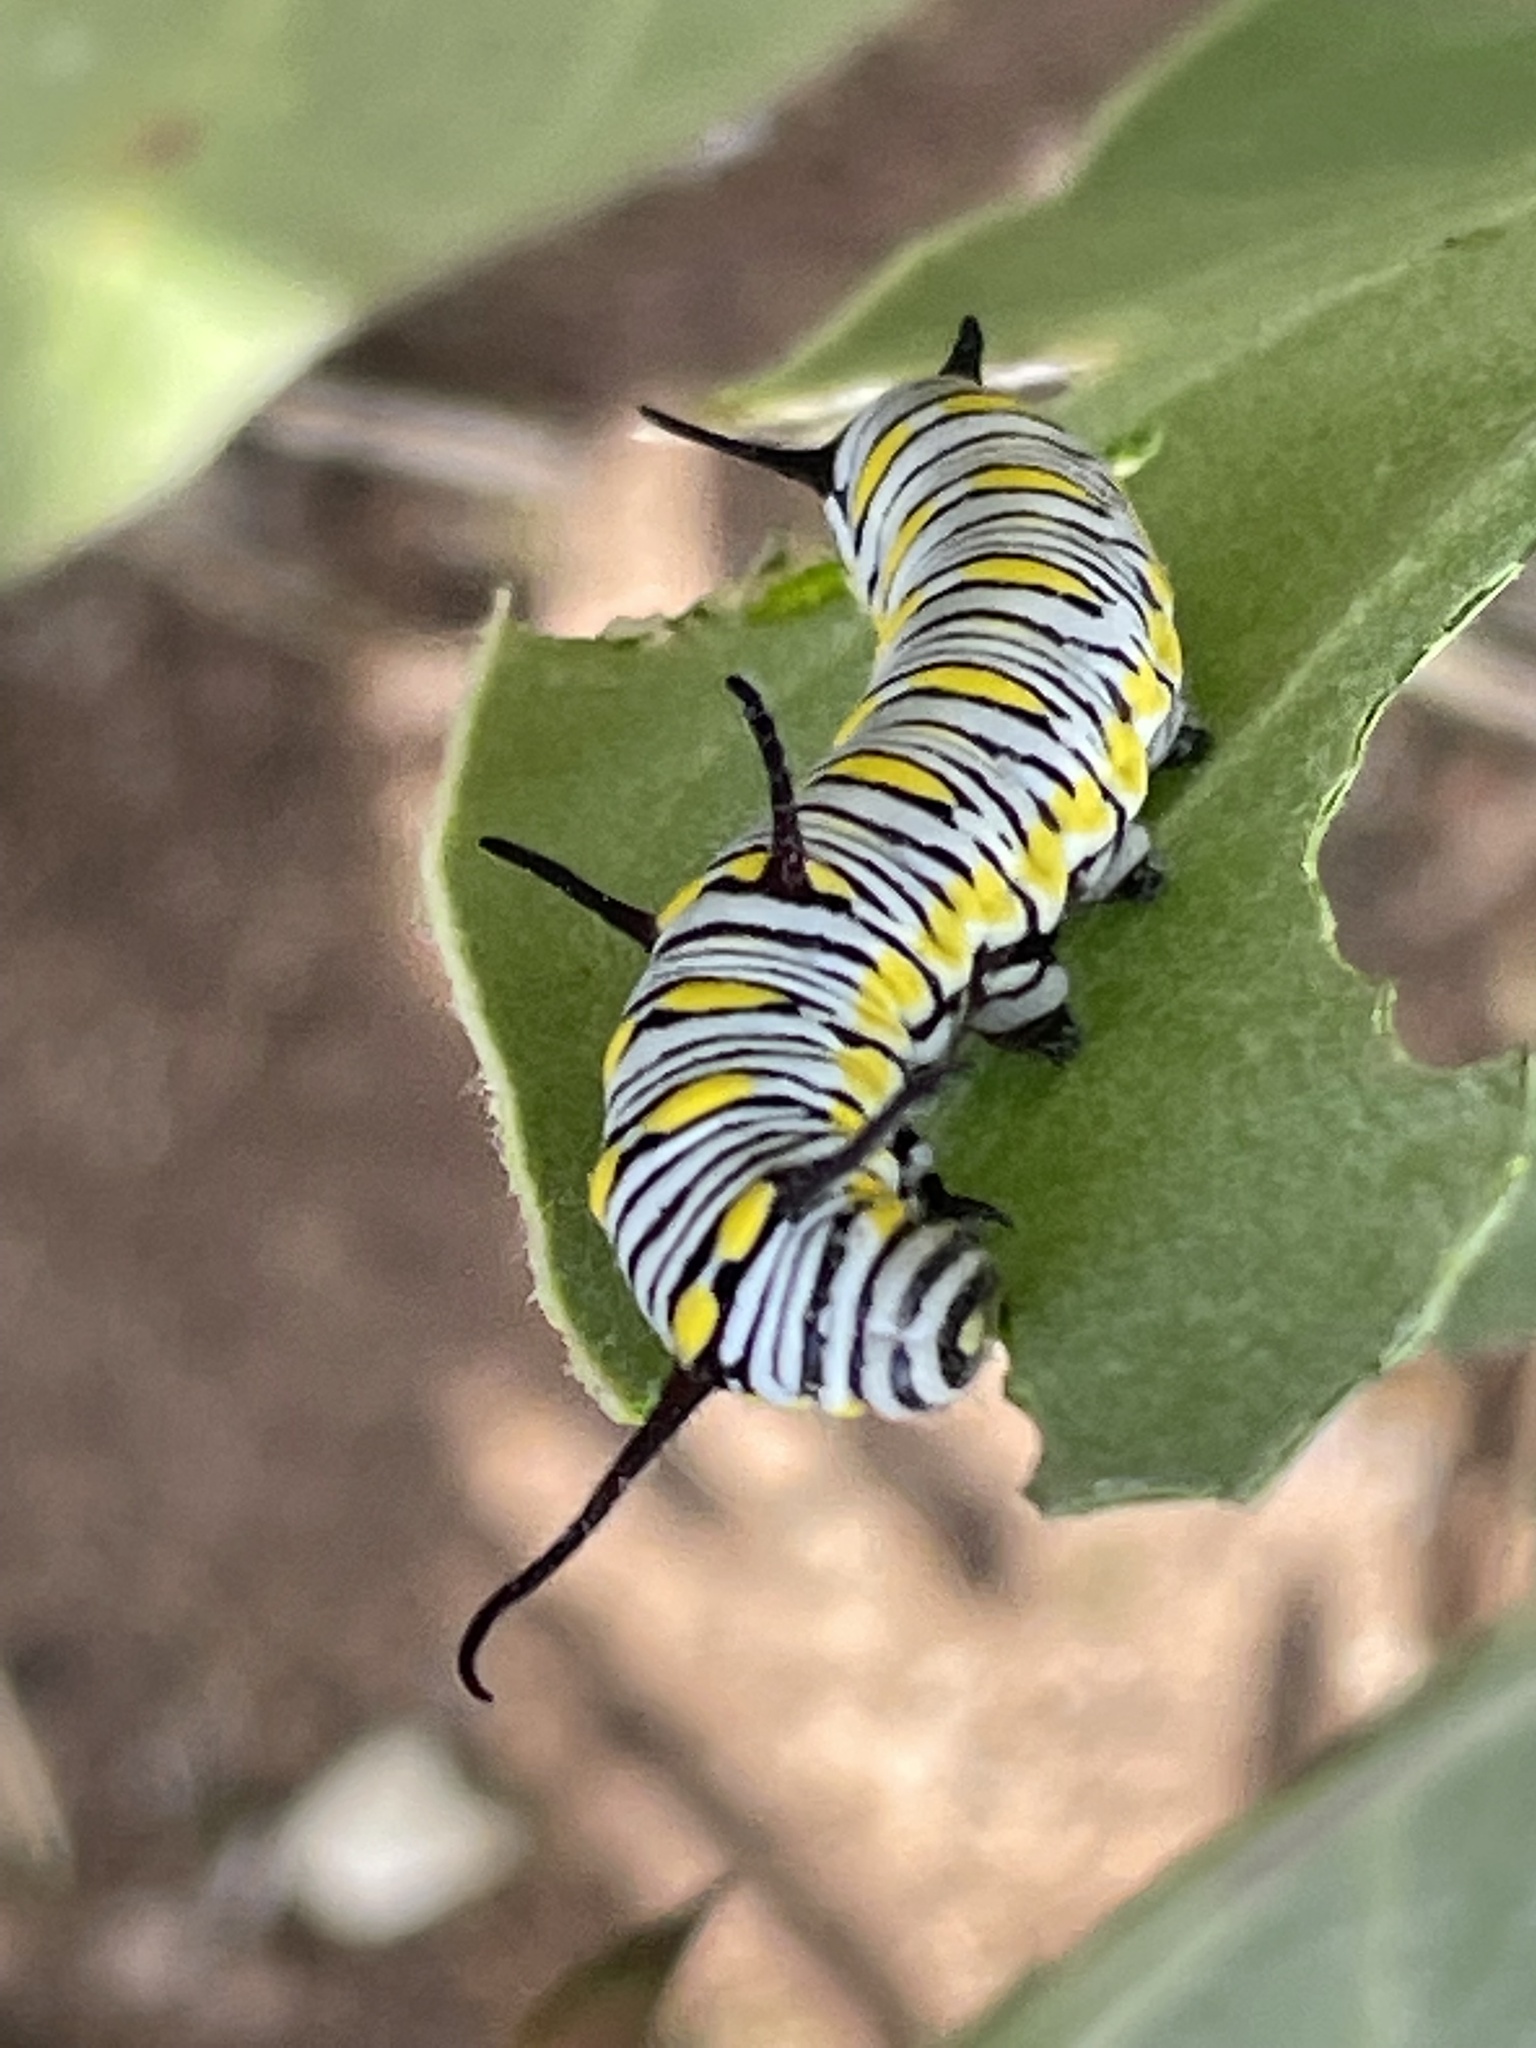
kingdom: Animalia
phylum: Arthropoda
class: Insecta
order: Lepidoptera
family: Nymphalidae
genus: Danaus
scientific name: Danaus chrysippus
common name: Plain tiger
